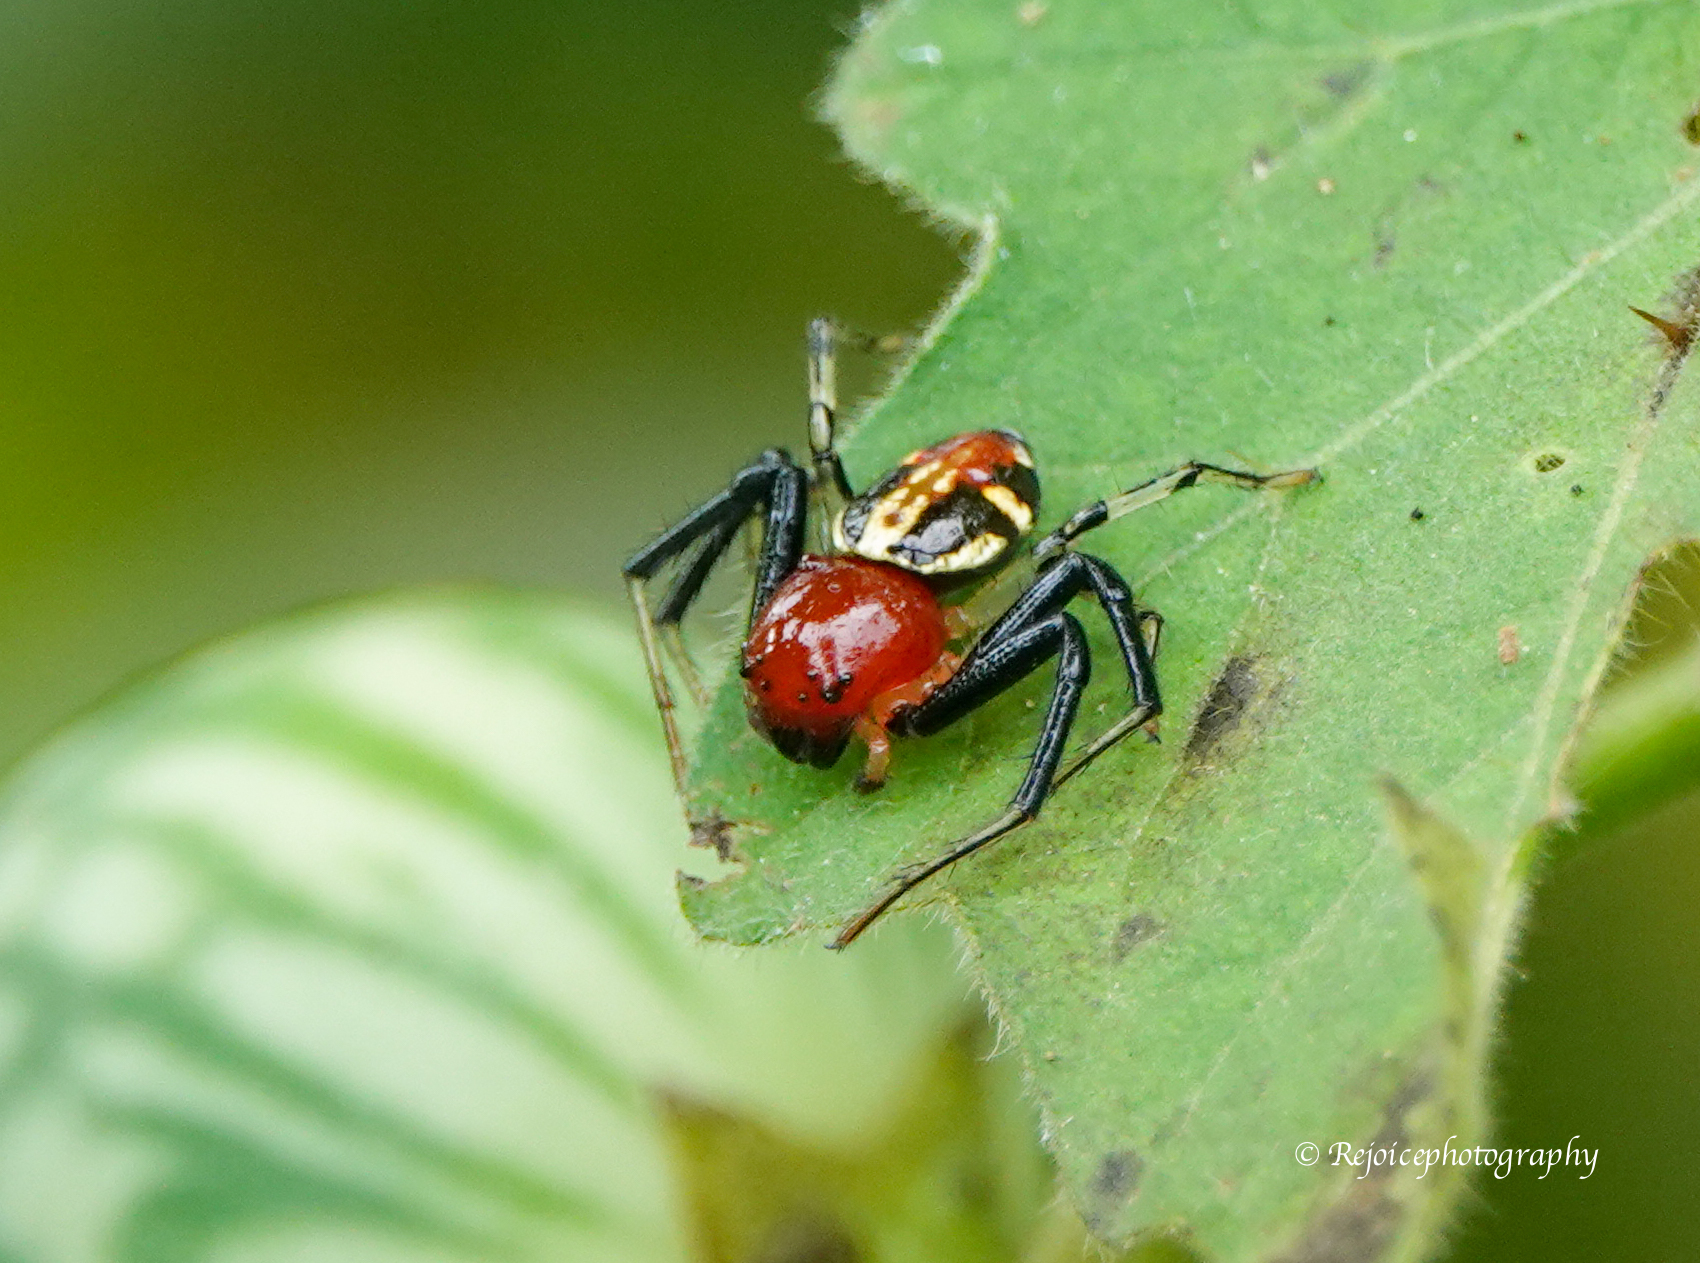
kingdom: Animalia
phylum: Arthropoda
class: Arachnida
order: Araneae
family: Thomisidae
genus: Camaricus
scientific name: Camaricus formosus
